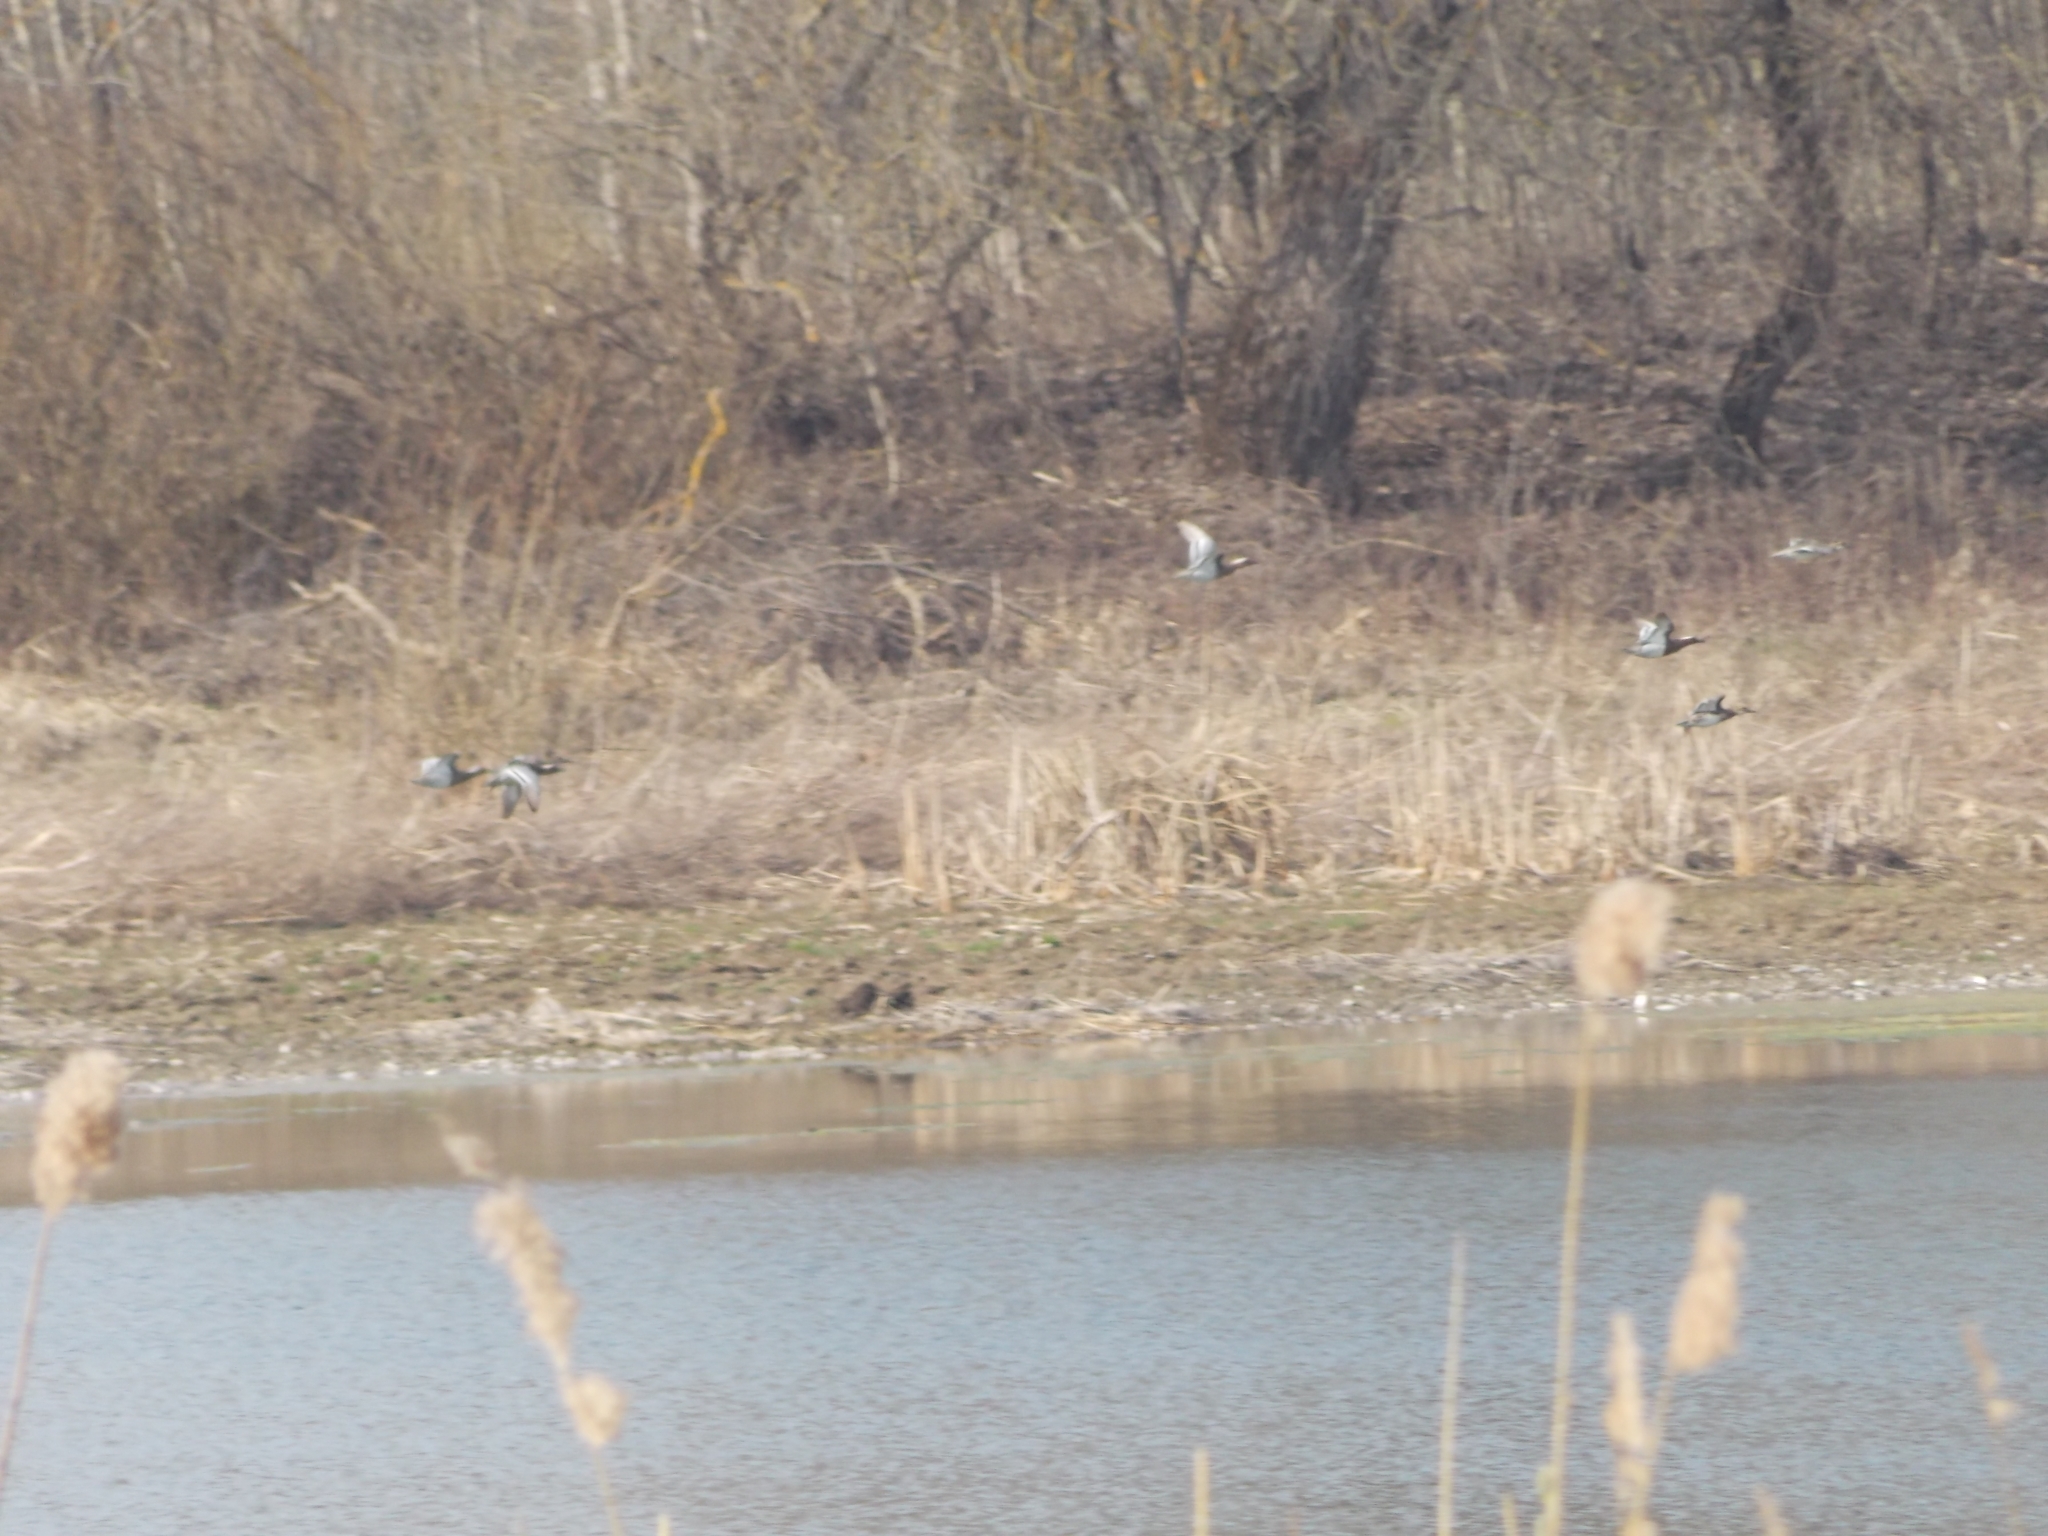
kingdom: Animalia
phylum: Chordata
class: Aves
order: Anseriformes
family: Anatidae
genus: Spatula
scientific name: Spatula querquedula
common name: Garganey
